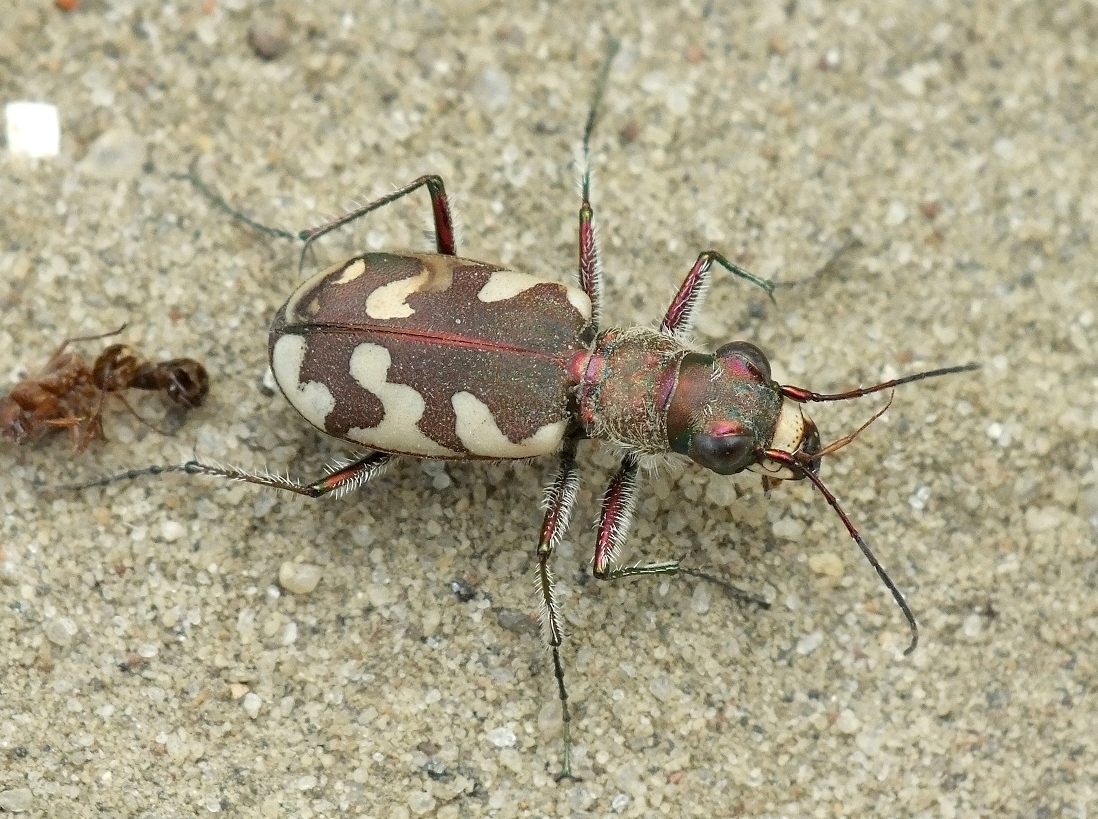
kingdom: Animalia
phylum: Arthropoda
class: Insecta
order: Coleoptera
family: Carabidae
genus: Cicindela
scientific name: Cicindela sahlbergii
